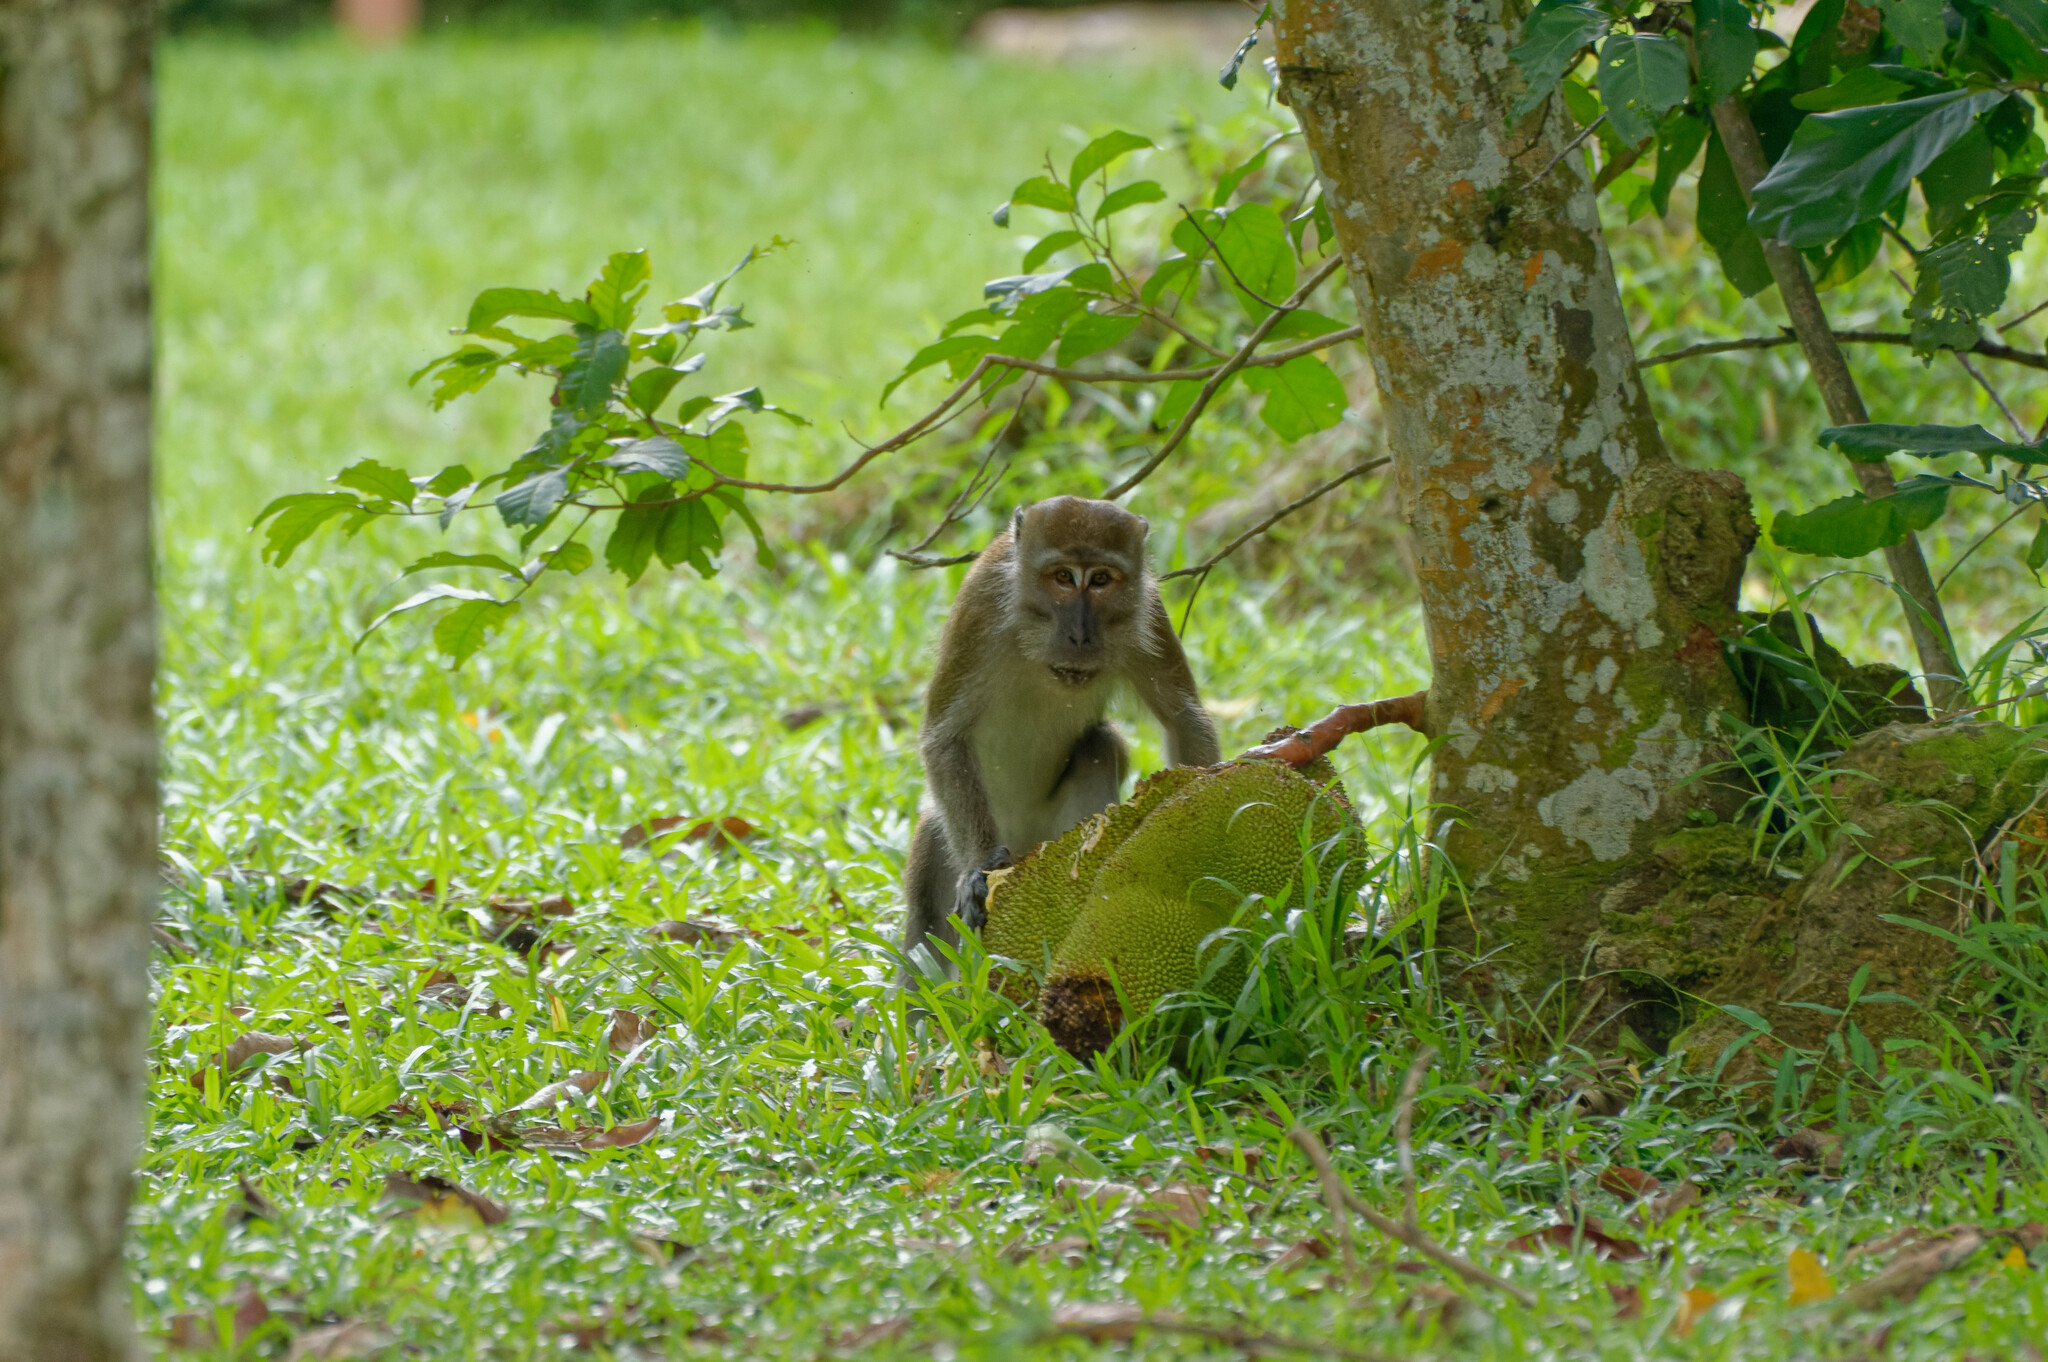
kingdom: Animalia
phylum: Chordata
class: Mammalia
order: Primates
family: Cercopithecidae
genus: Macaca
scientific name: Macaca fascicularis
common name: Crab-eating macaque
